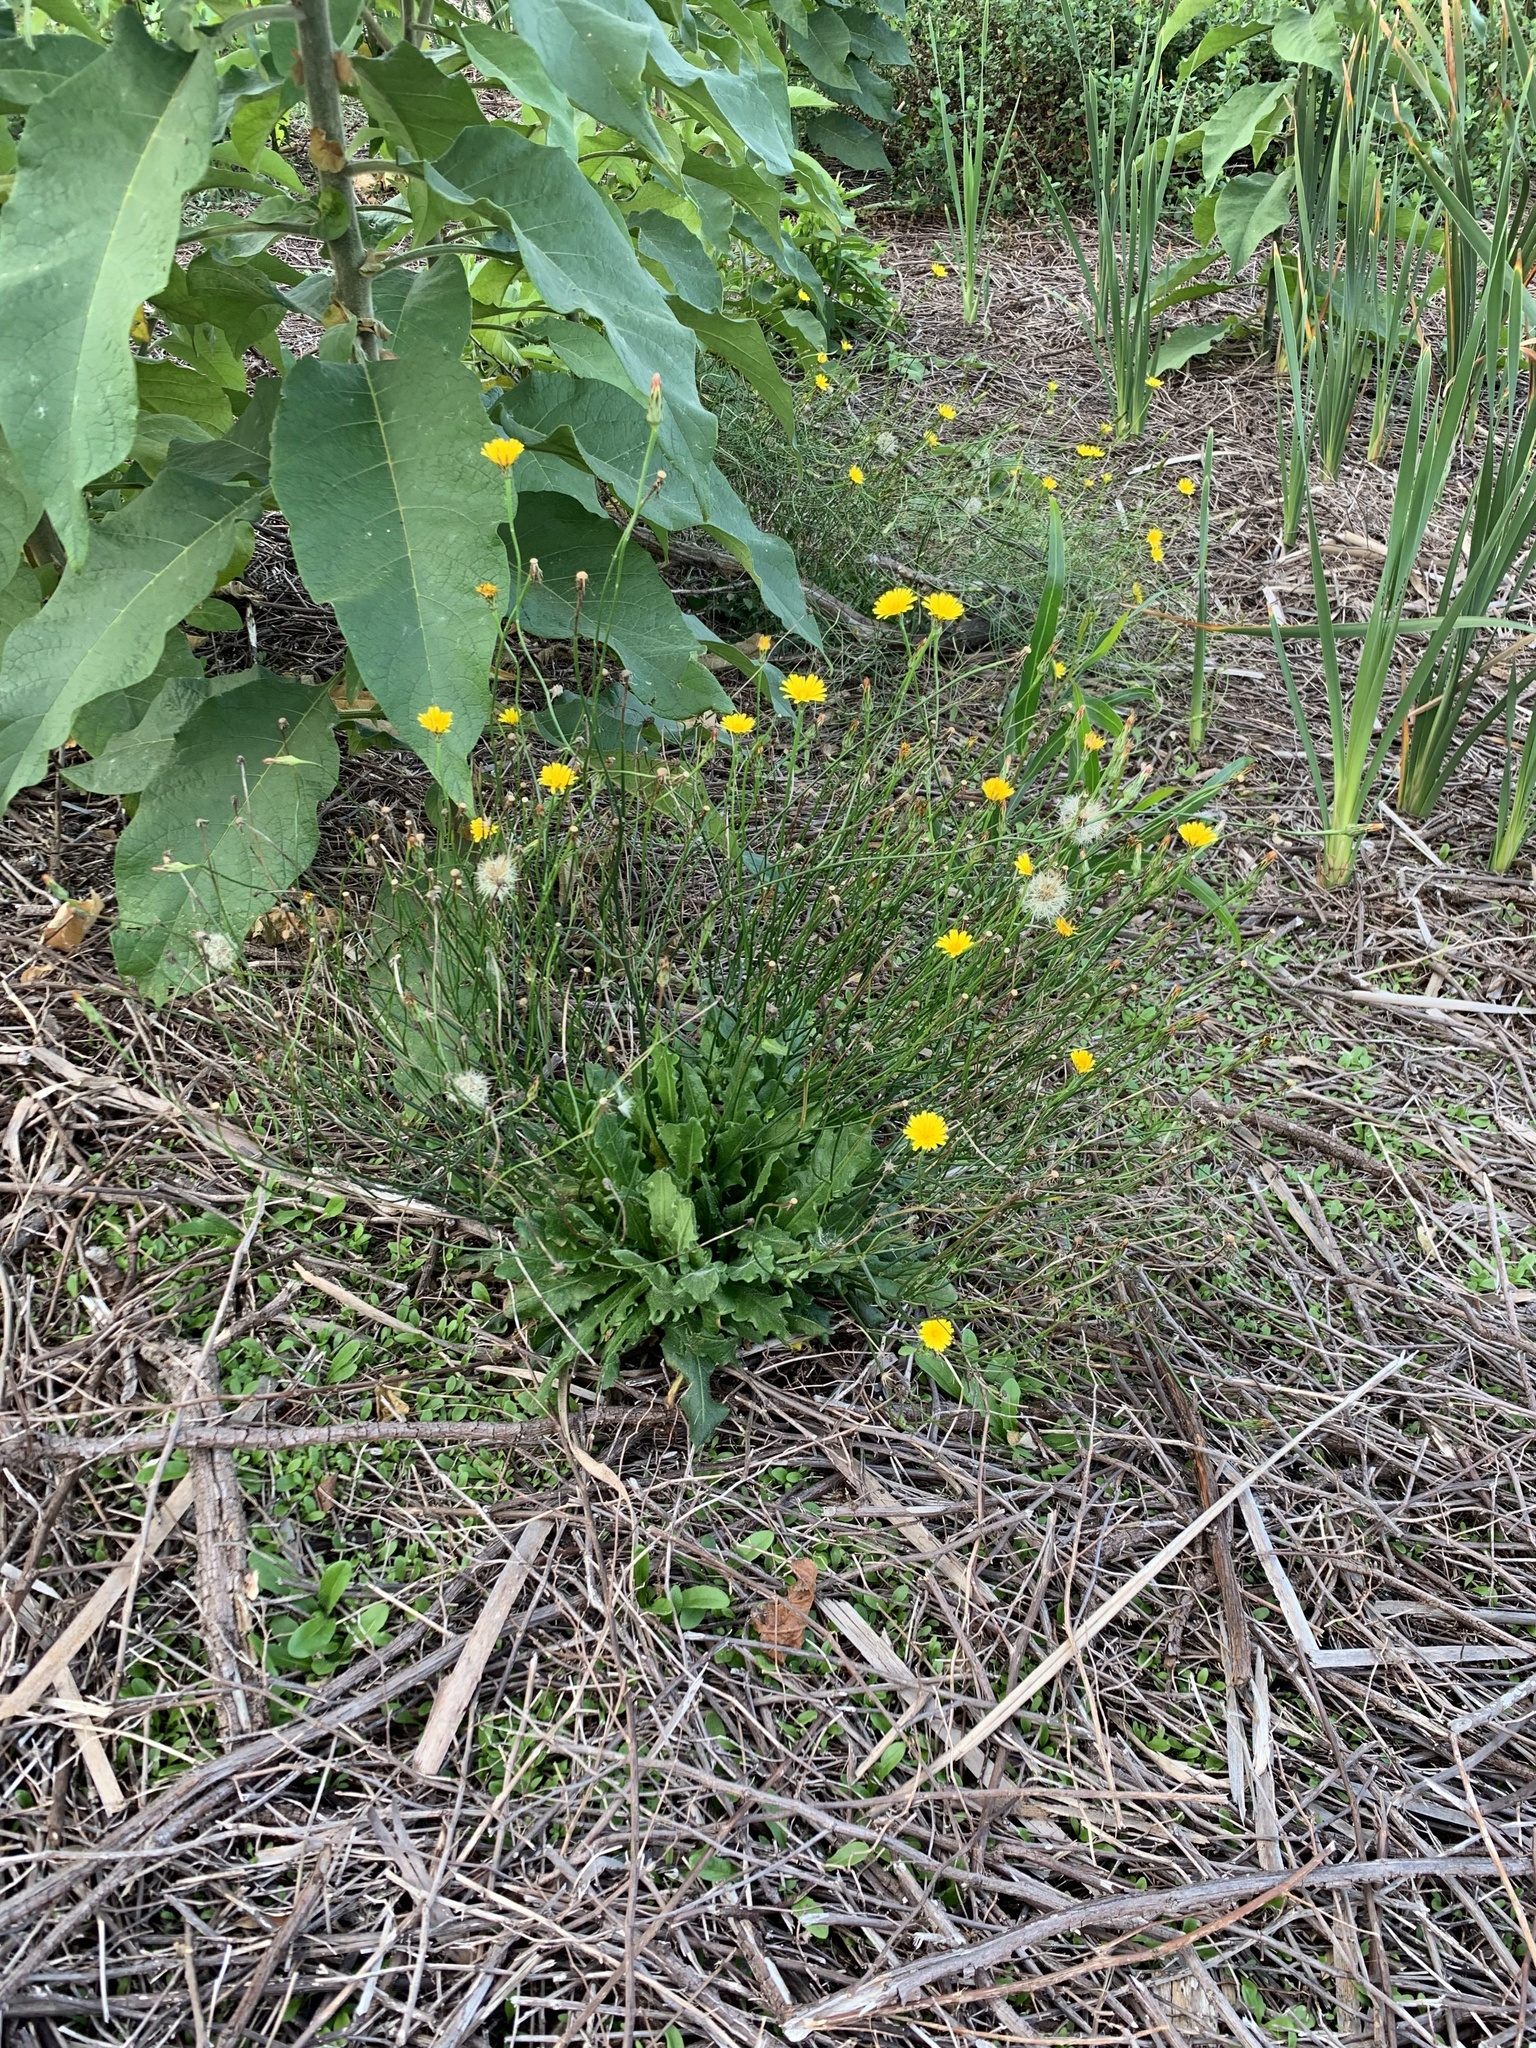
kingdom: Plantae
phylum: Tracheophyta
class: Magnoliopsida
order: Asterales
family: Asteraceae
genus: Hypochaeris
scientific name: Hypochaeris radicata
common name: Flatweed
